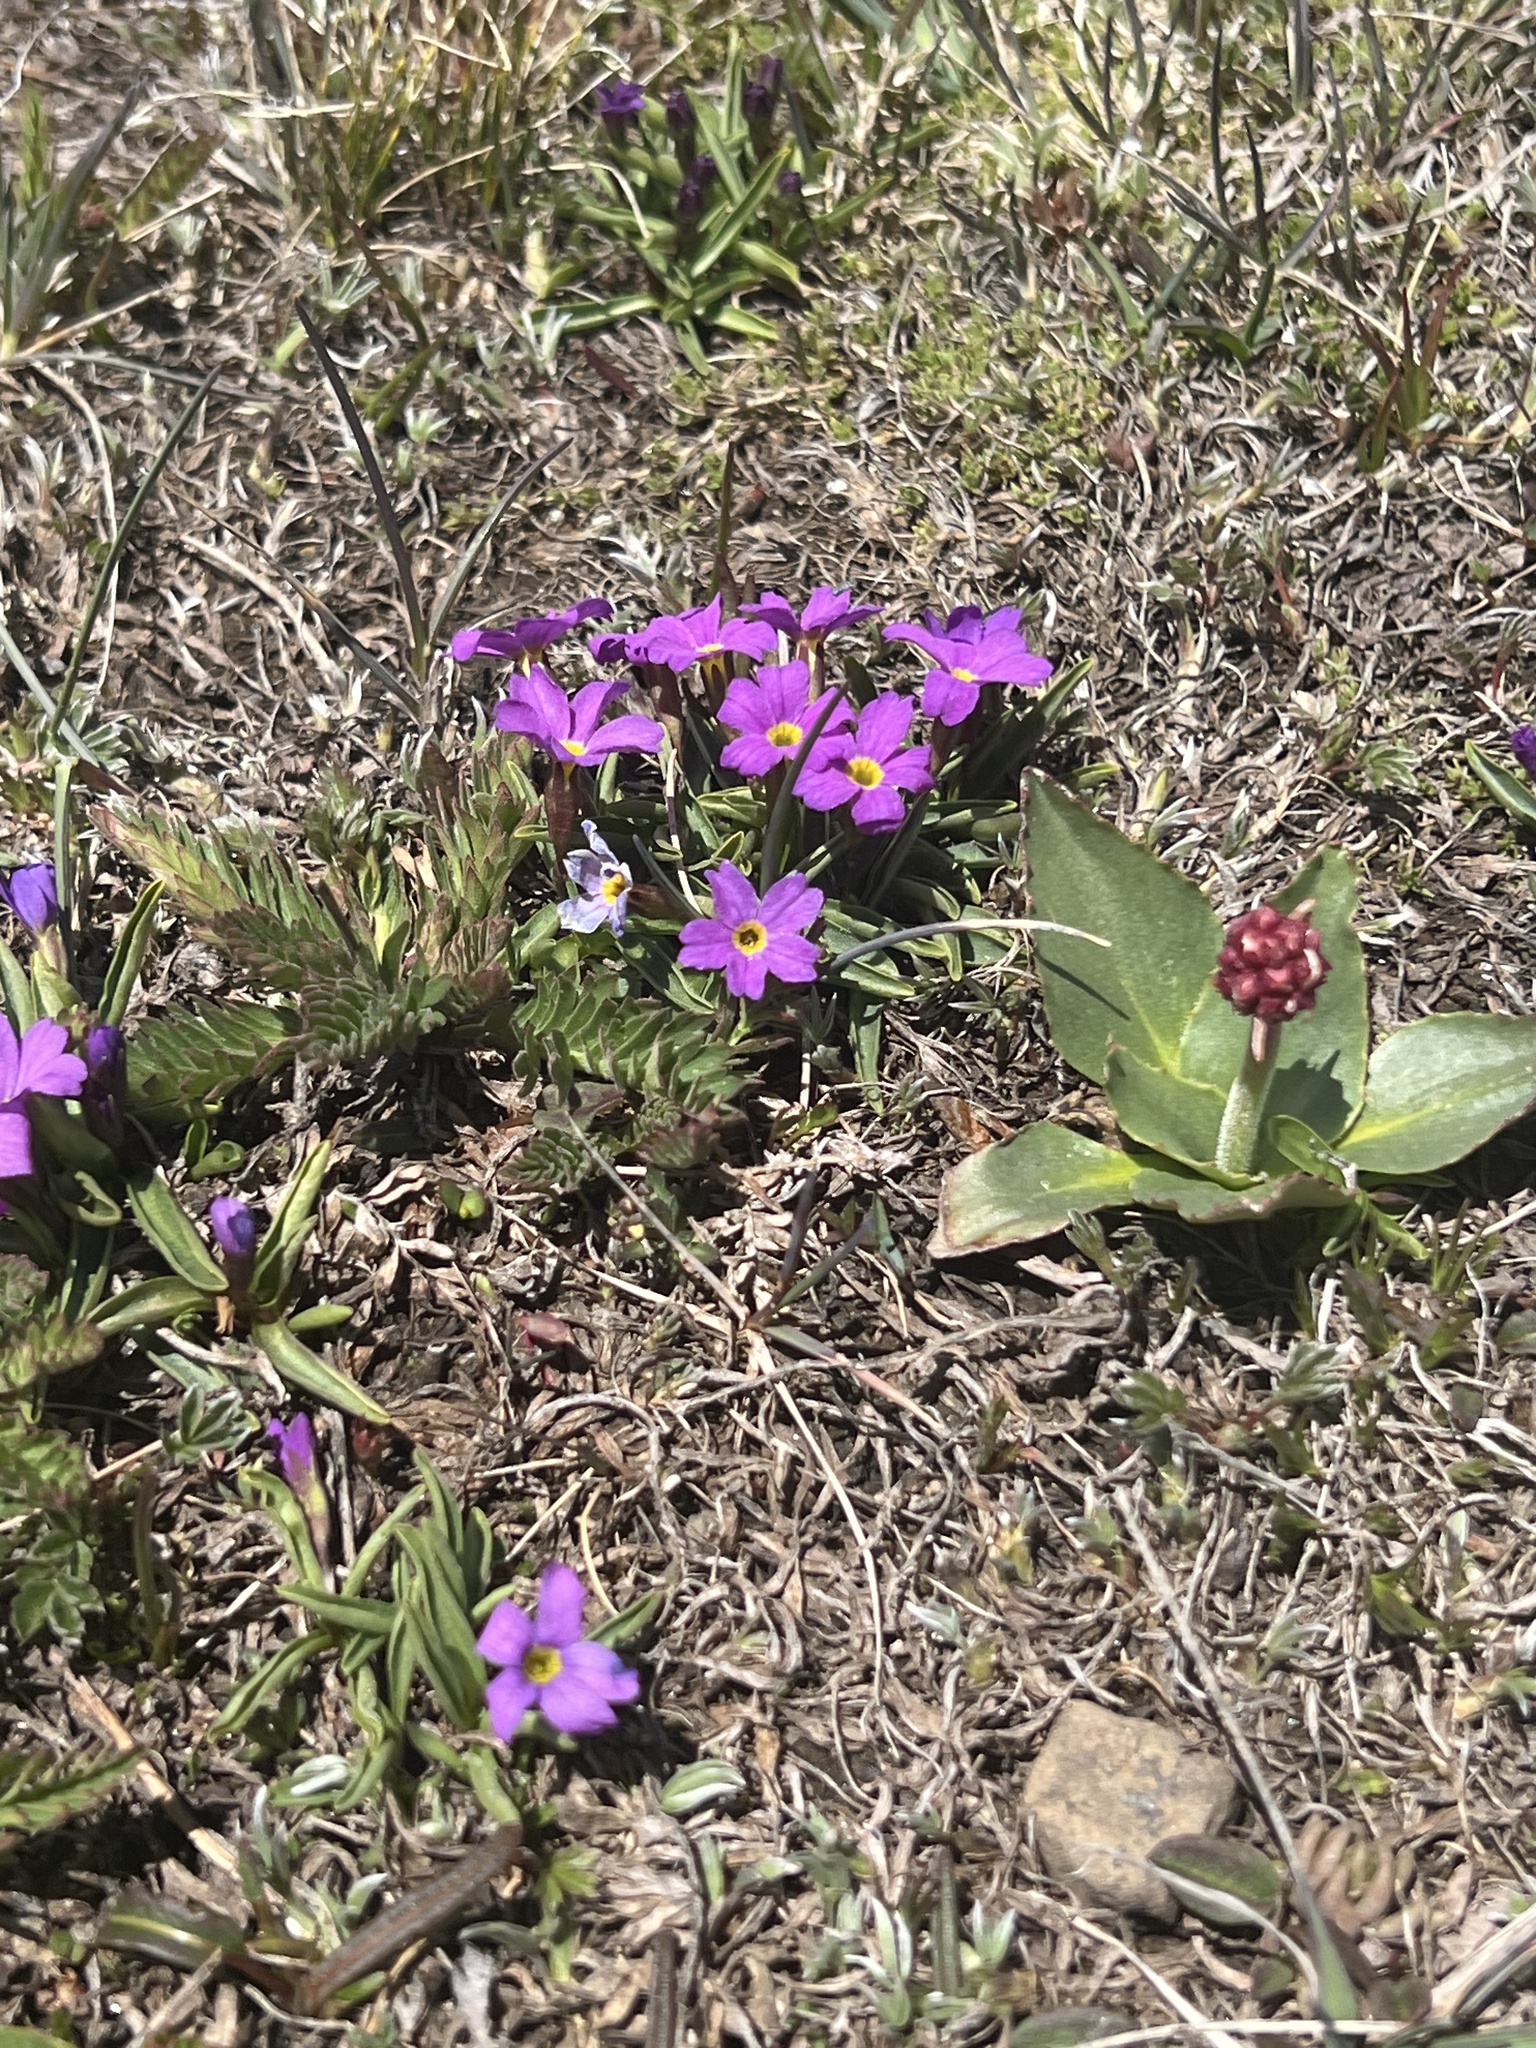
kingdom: Plantae
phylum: Tracheophyta
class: Magnoliopsida
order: Ericales
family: Primulaceae
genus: Primula
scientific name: Primula angustifolia
